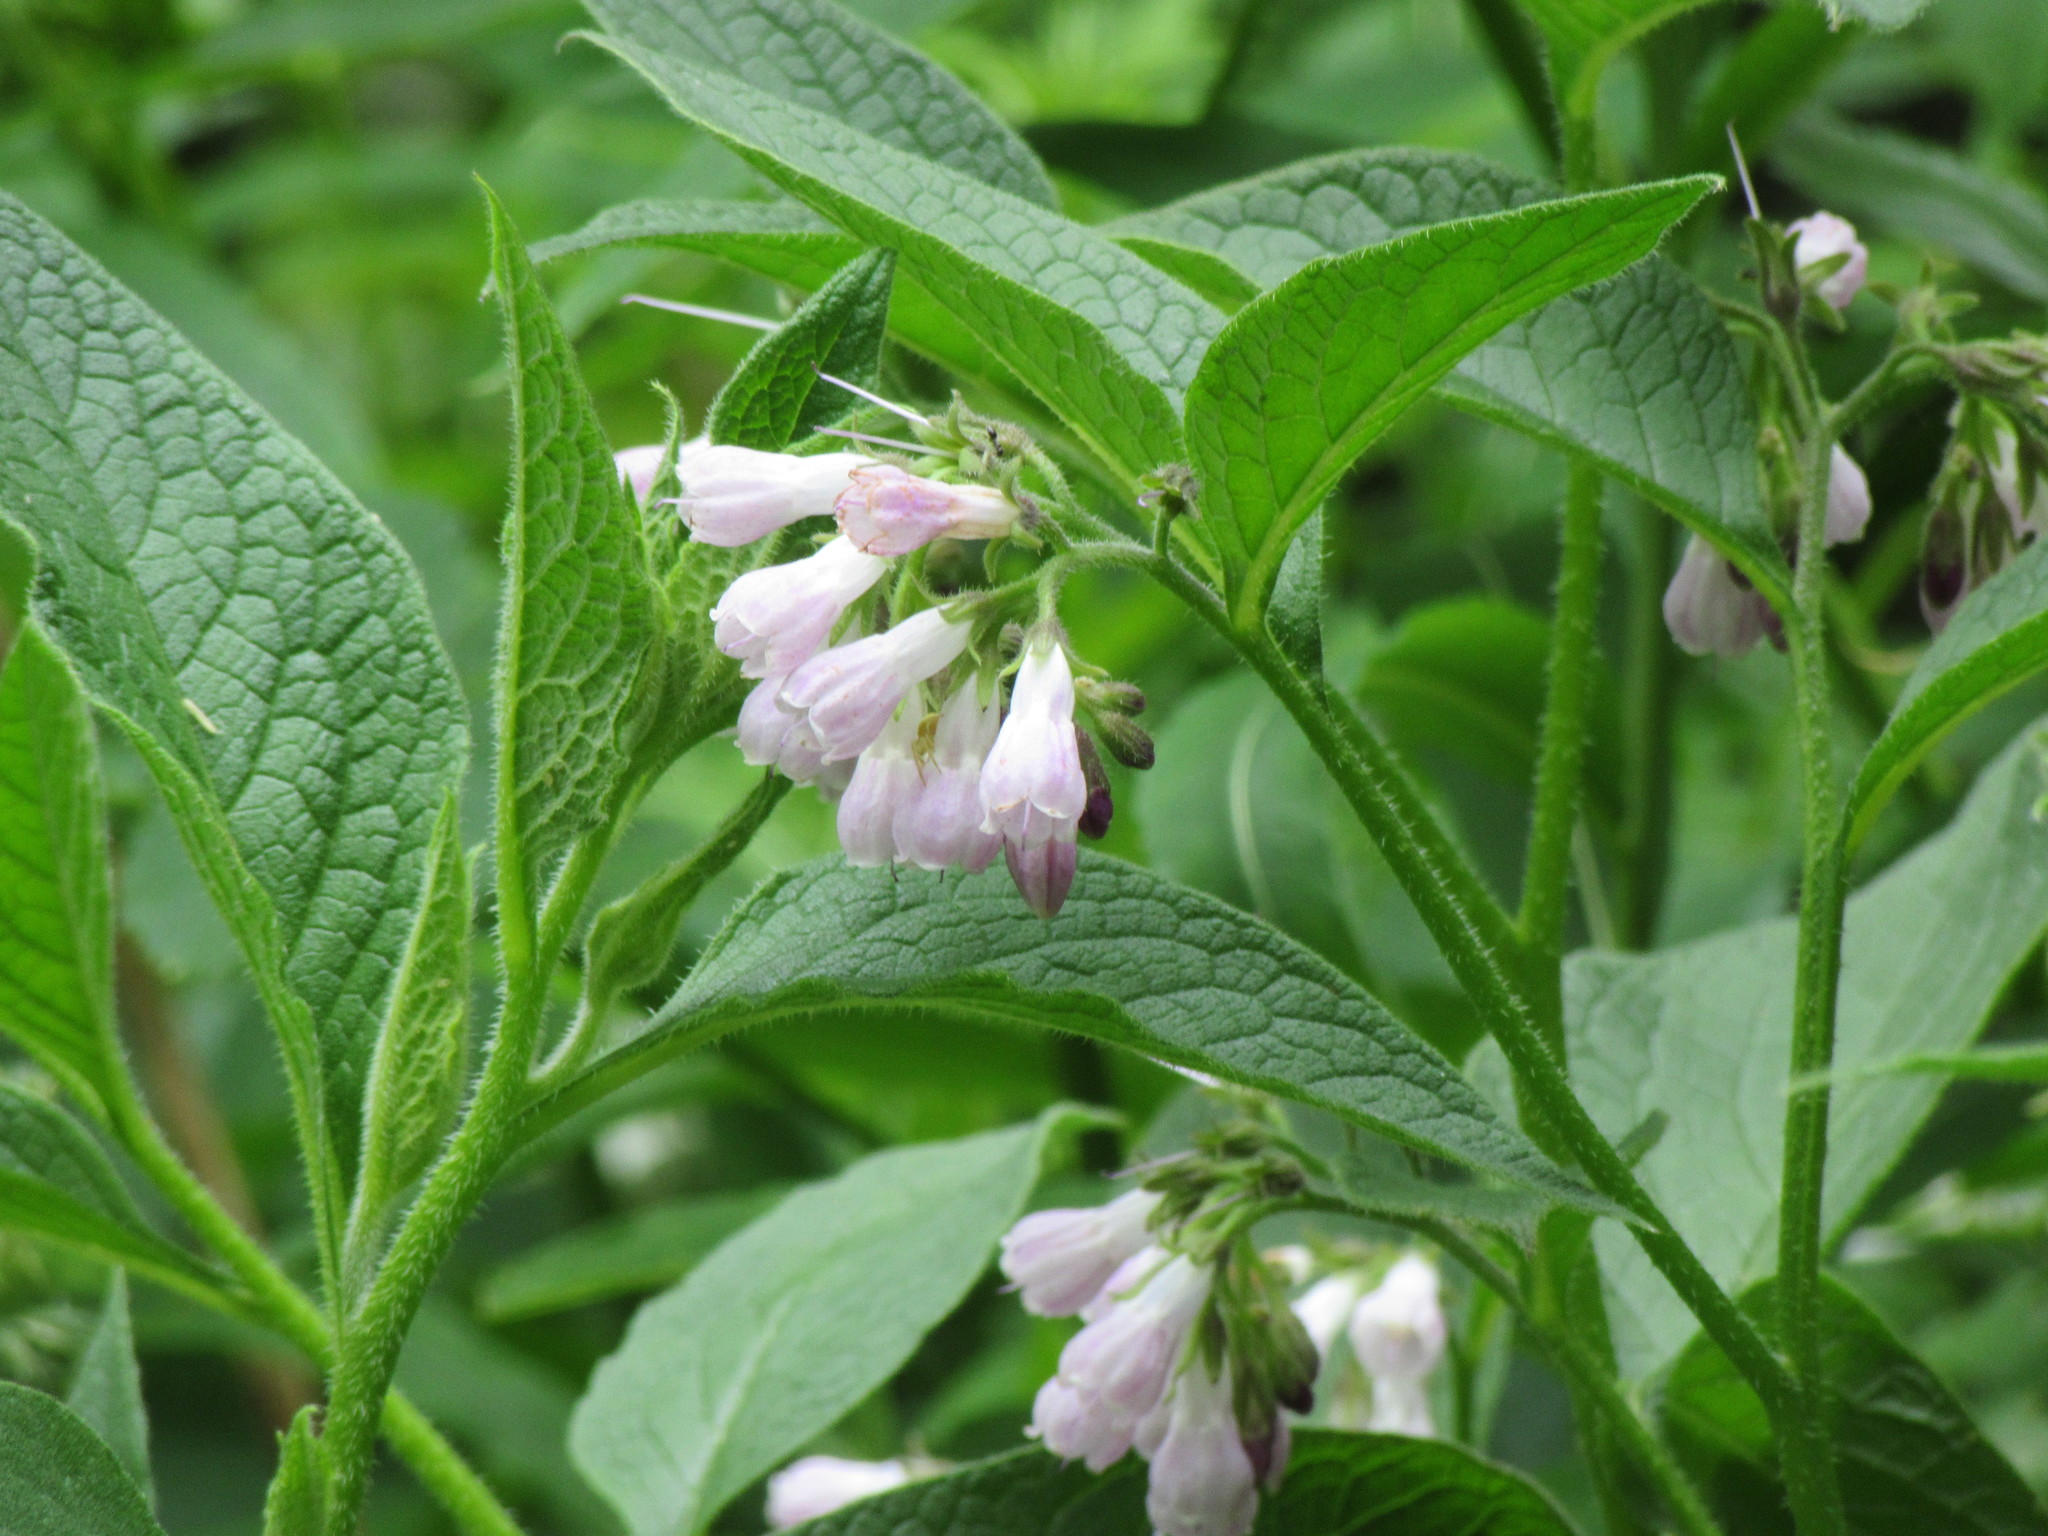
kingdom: Plantae
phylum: Tracheophyta
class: Magnoliopsida
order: Boraginales
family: Boraginaceae
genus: Symphytum
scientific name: Symphytum officinale
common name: Common comfrey
